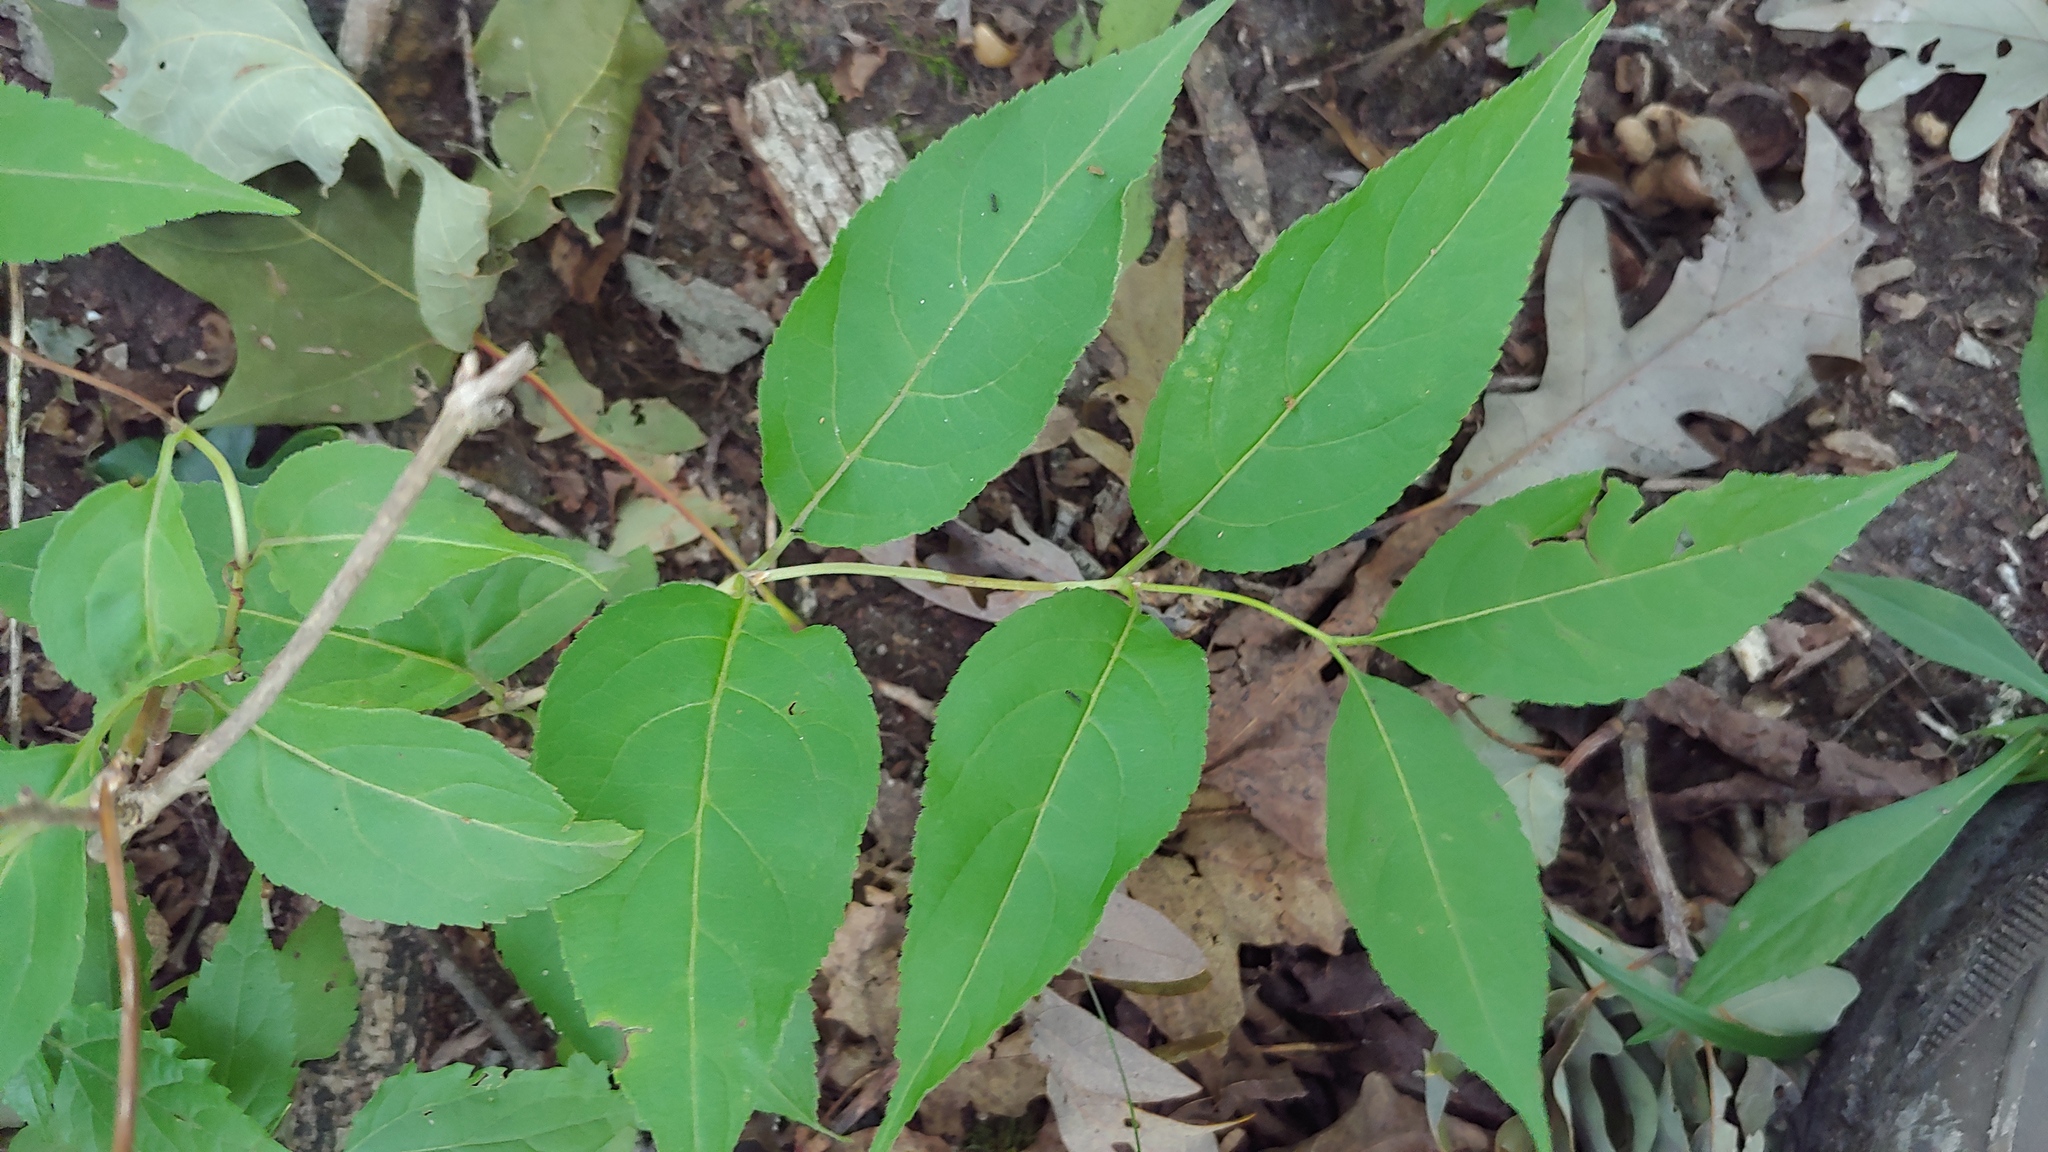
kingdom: Plantae
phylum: Tracheophyta
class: Magnoliopsida
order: Dipsacales
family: Caprifoliaceae
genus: Diervilla
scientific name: Diervilla lonicera
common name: Bush-honeysuckle
